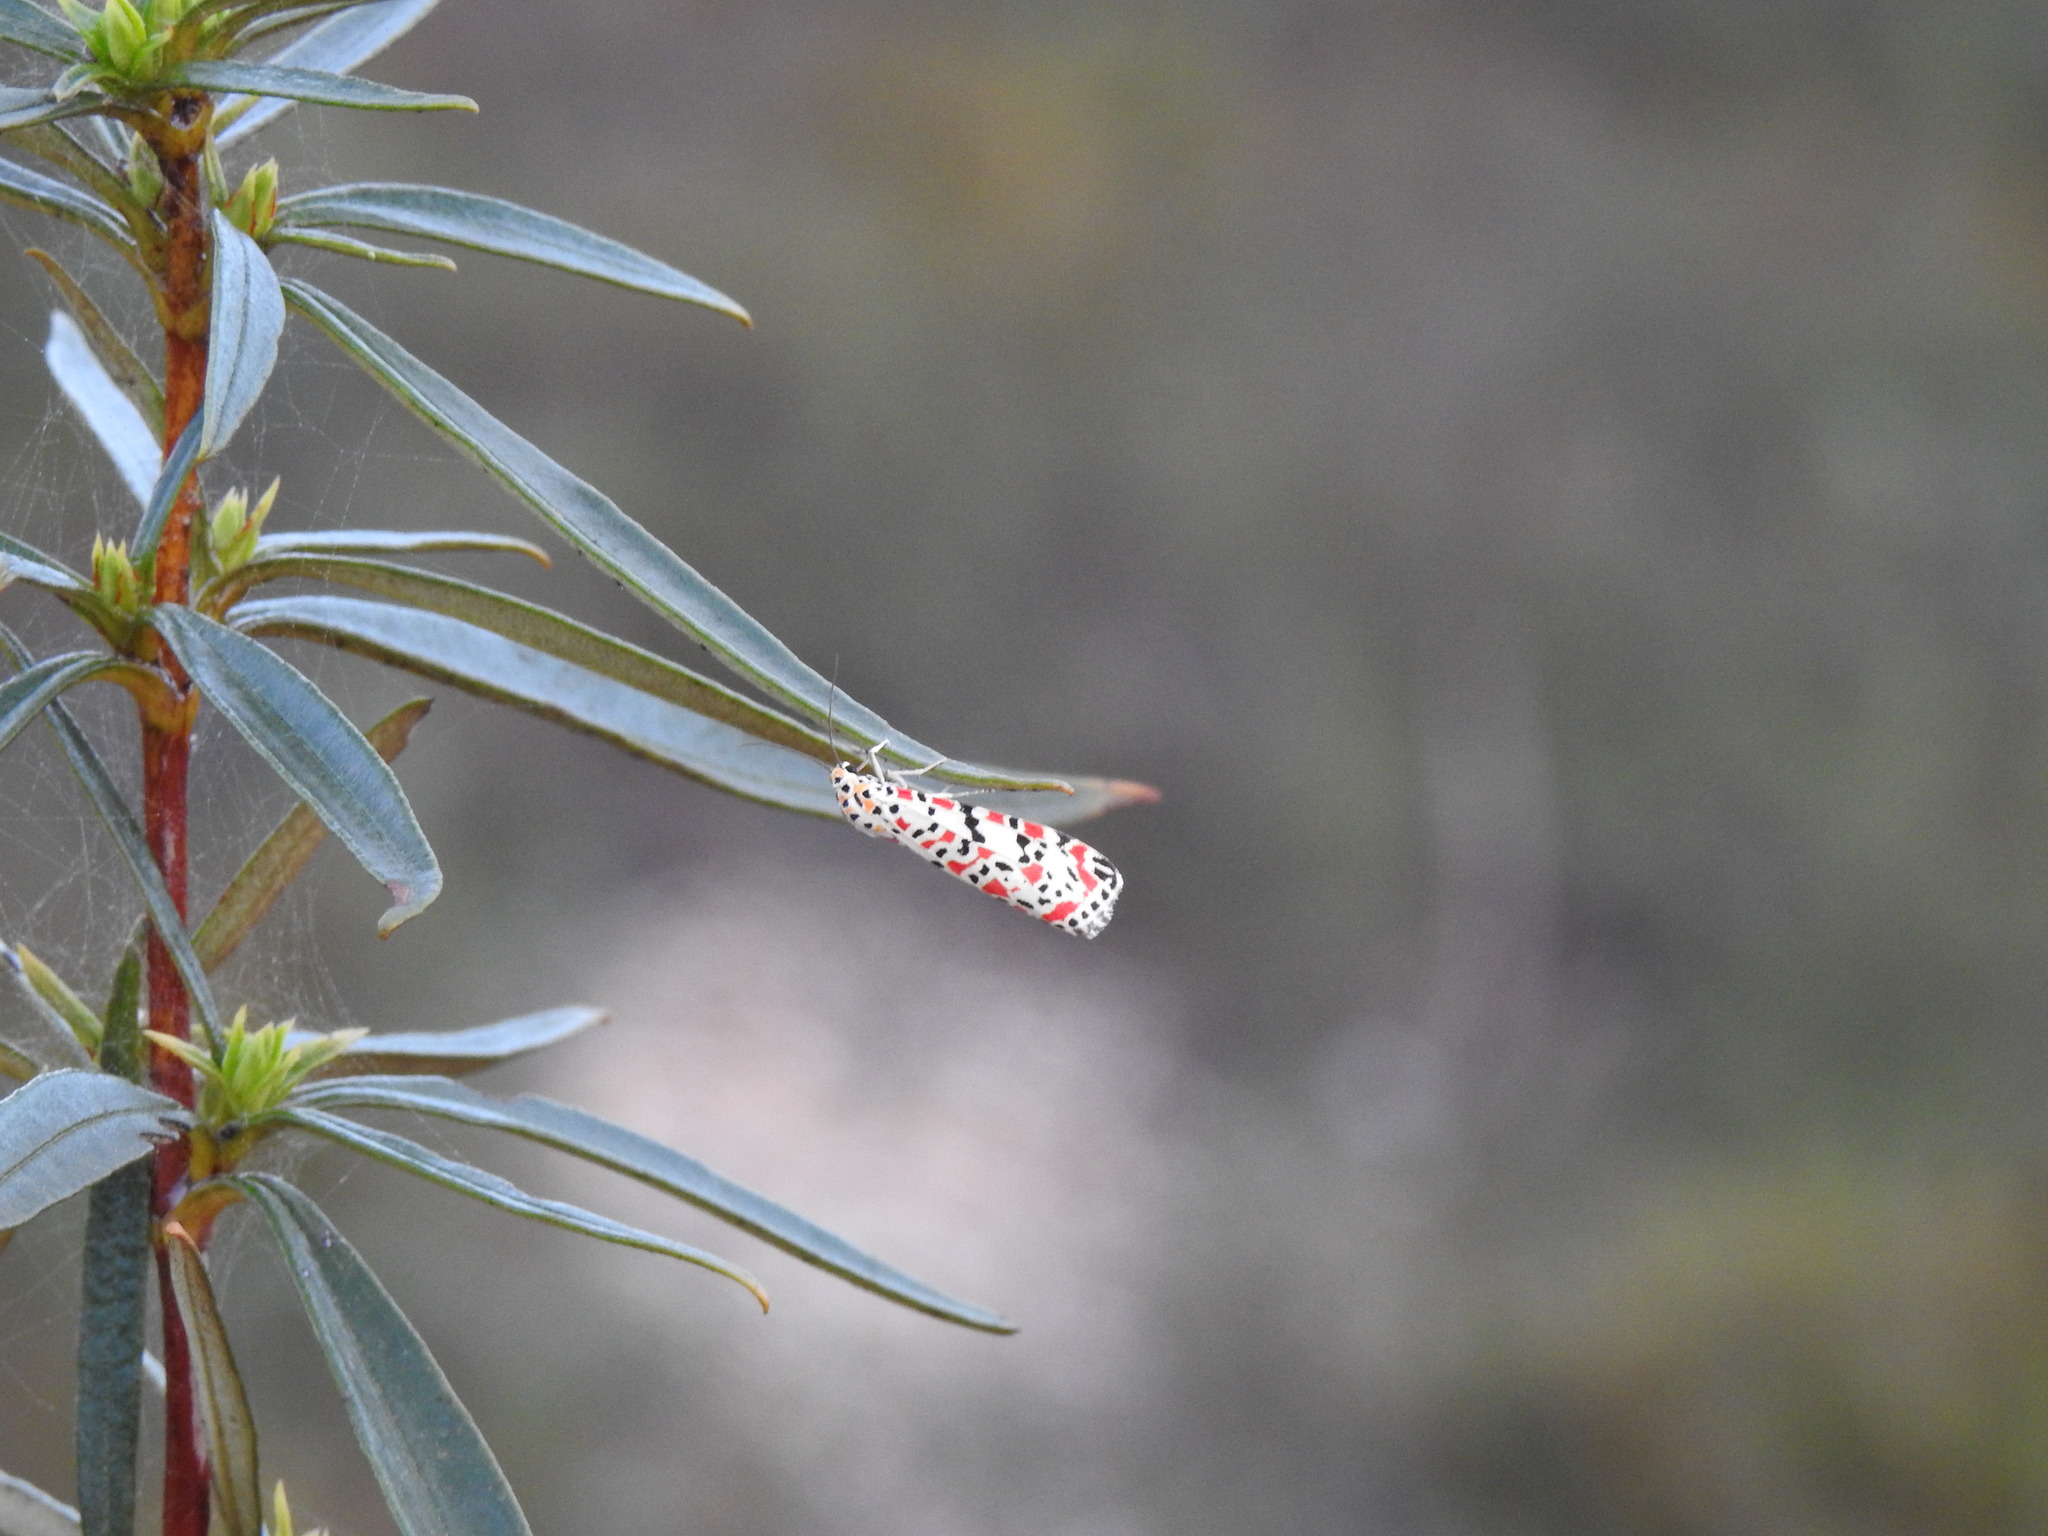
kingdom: Animalia
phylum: Arthropoda
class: Insecta
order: Lepidoptera
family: Erebidae
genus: Utetheisa
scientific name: Utetheisa pulchella
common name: Crimson speckled
